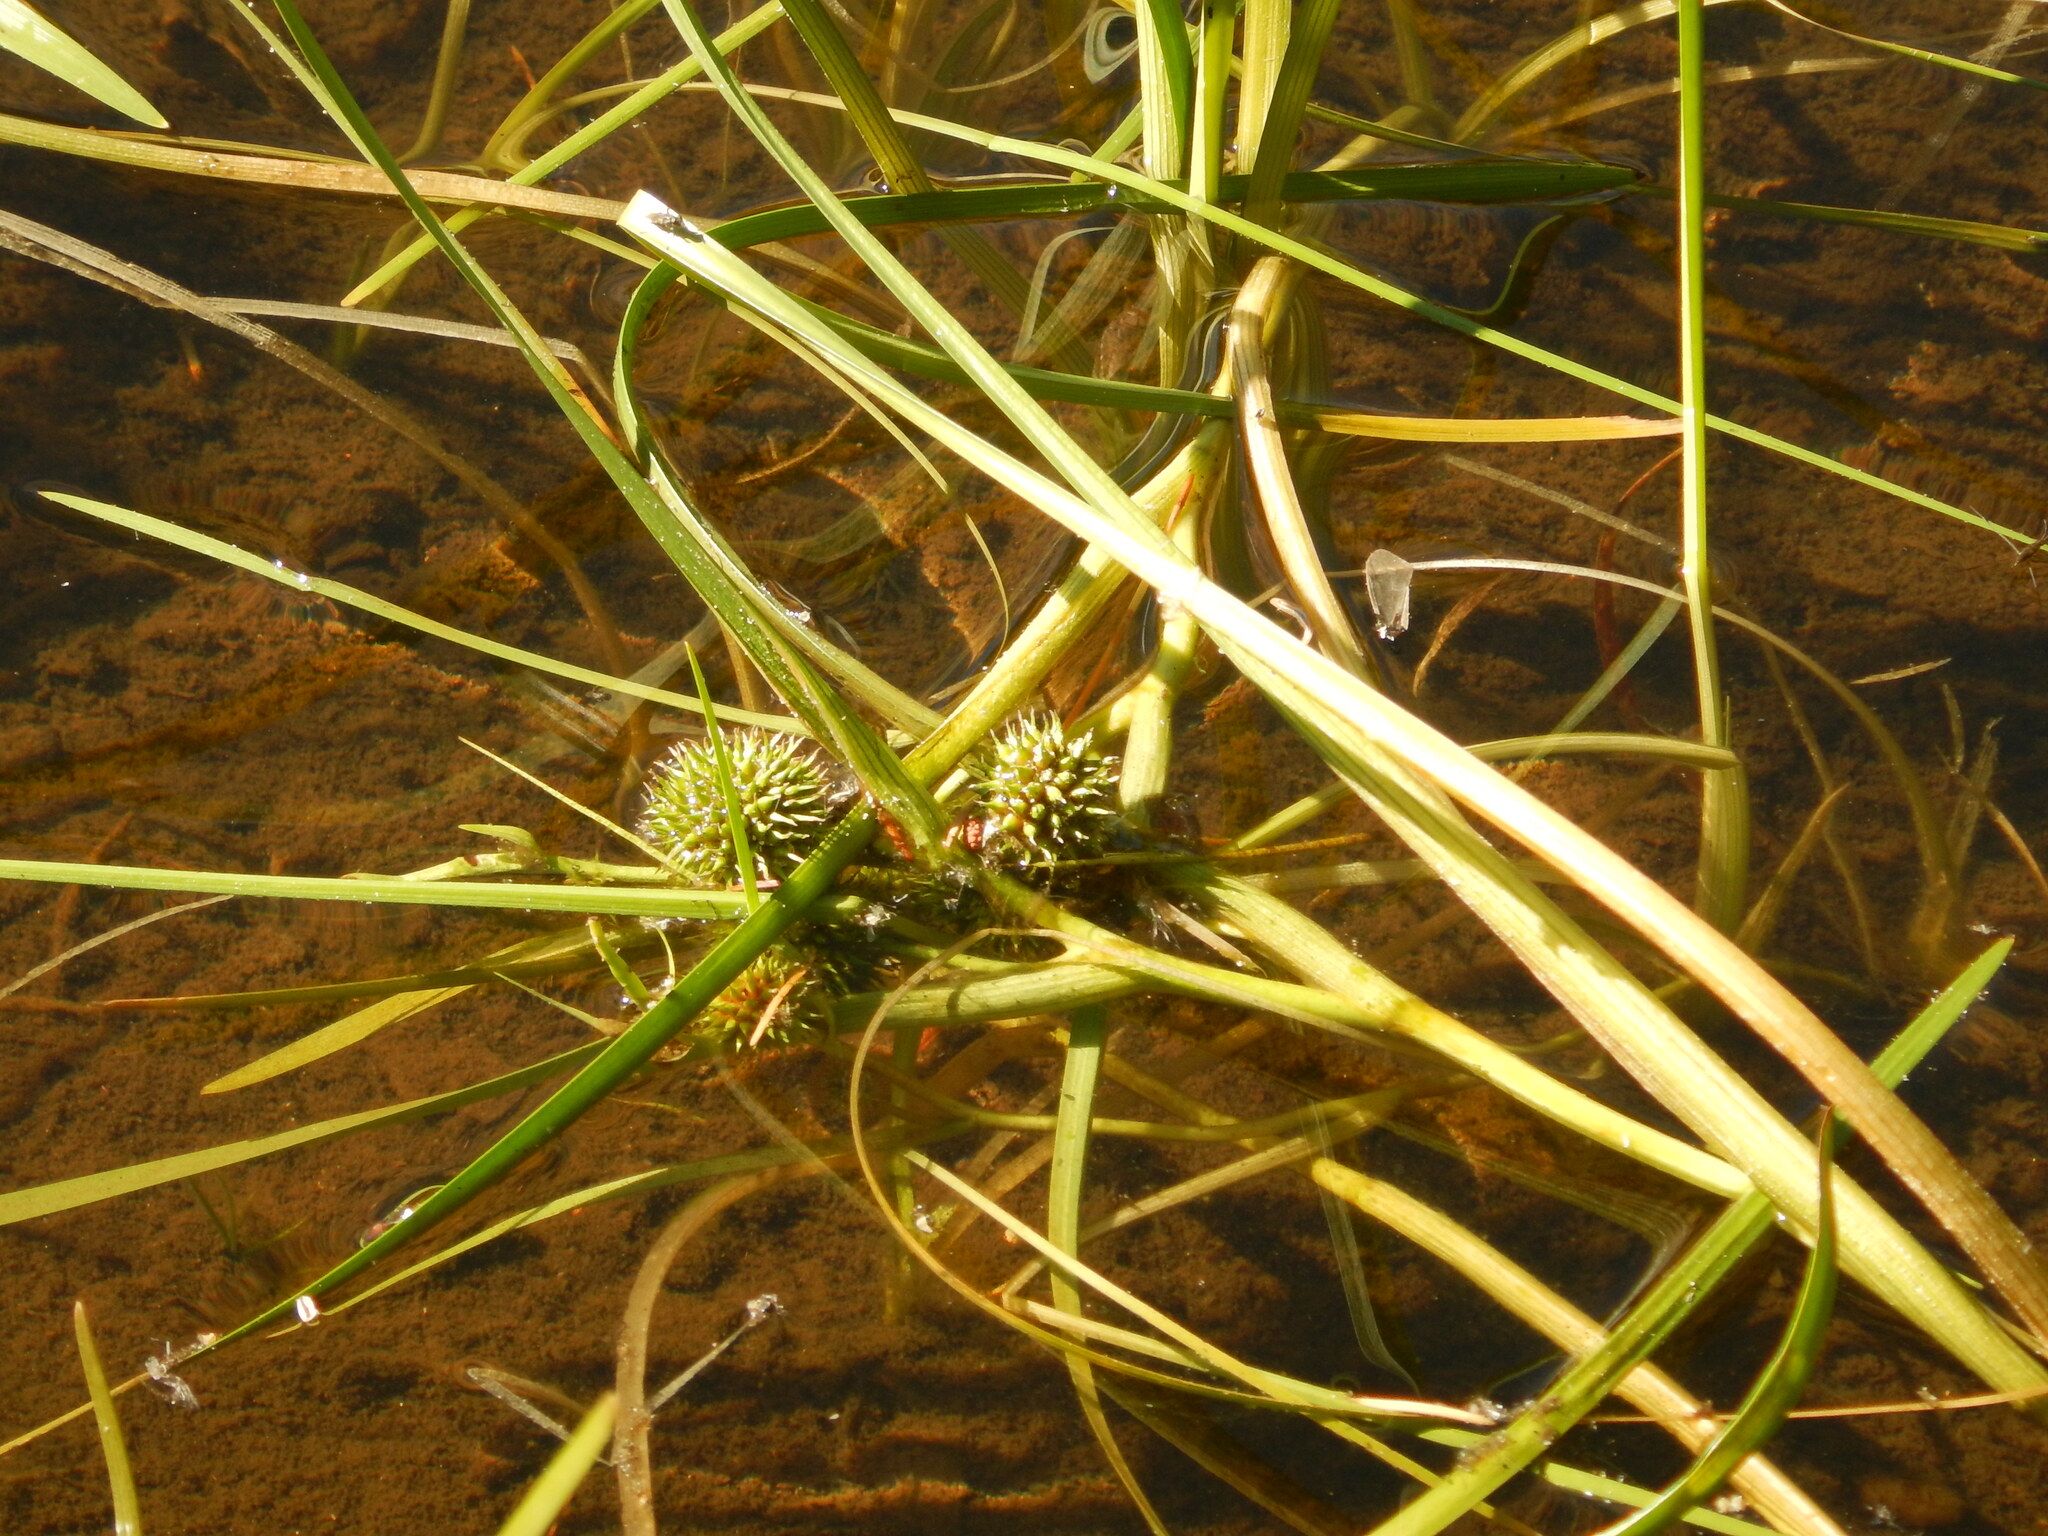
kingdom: Plantae
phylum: Tracheophyta
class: Liliopsida
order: Poales
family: Typhaceae
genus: Sparganium
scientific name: Sparganium angustifolium
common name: Floating bur-reed
